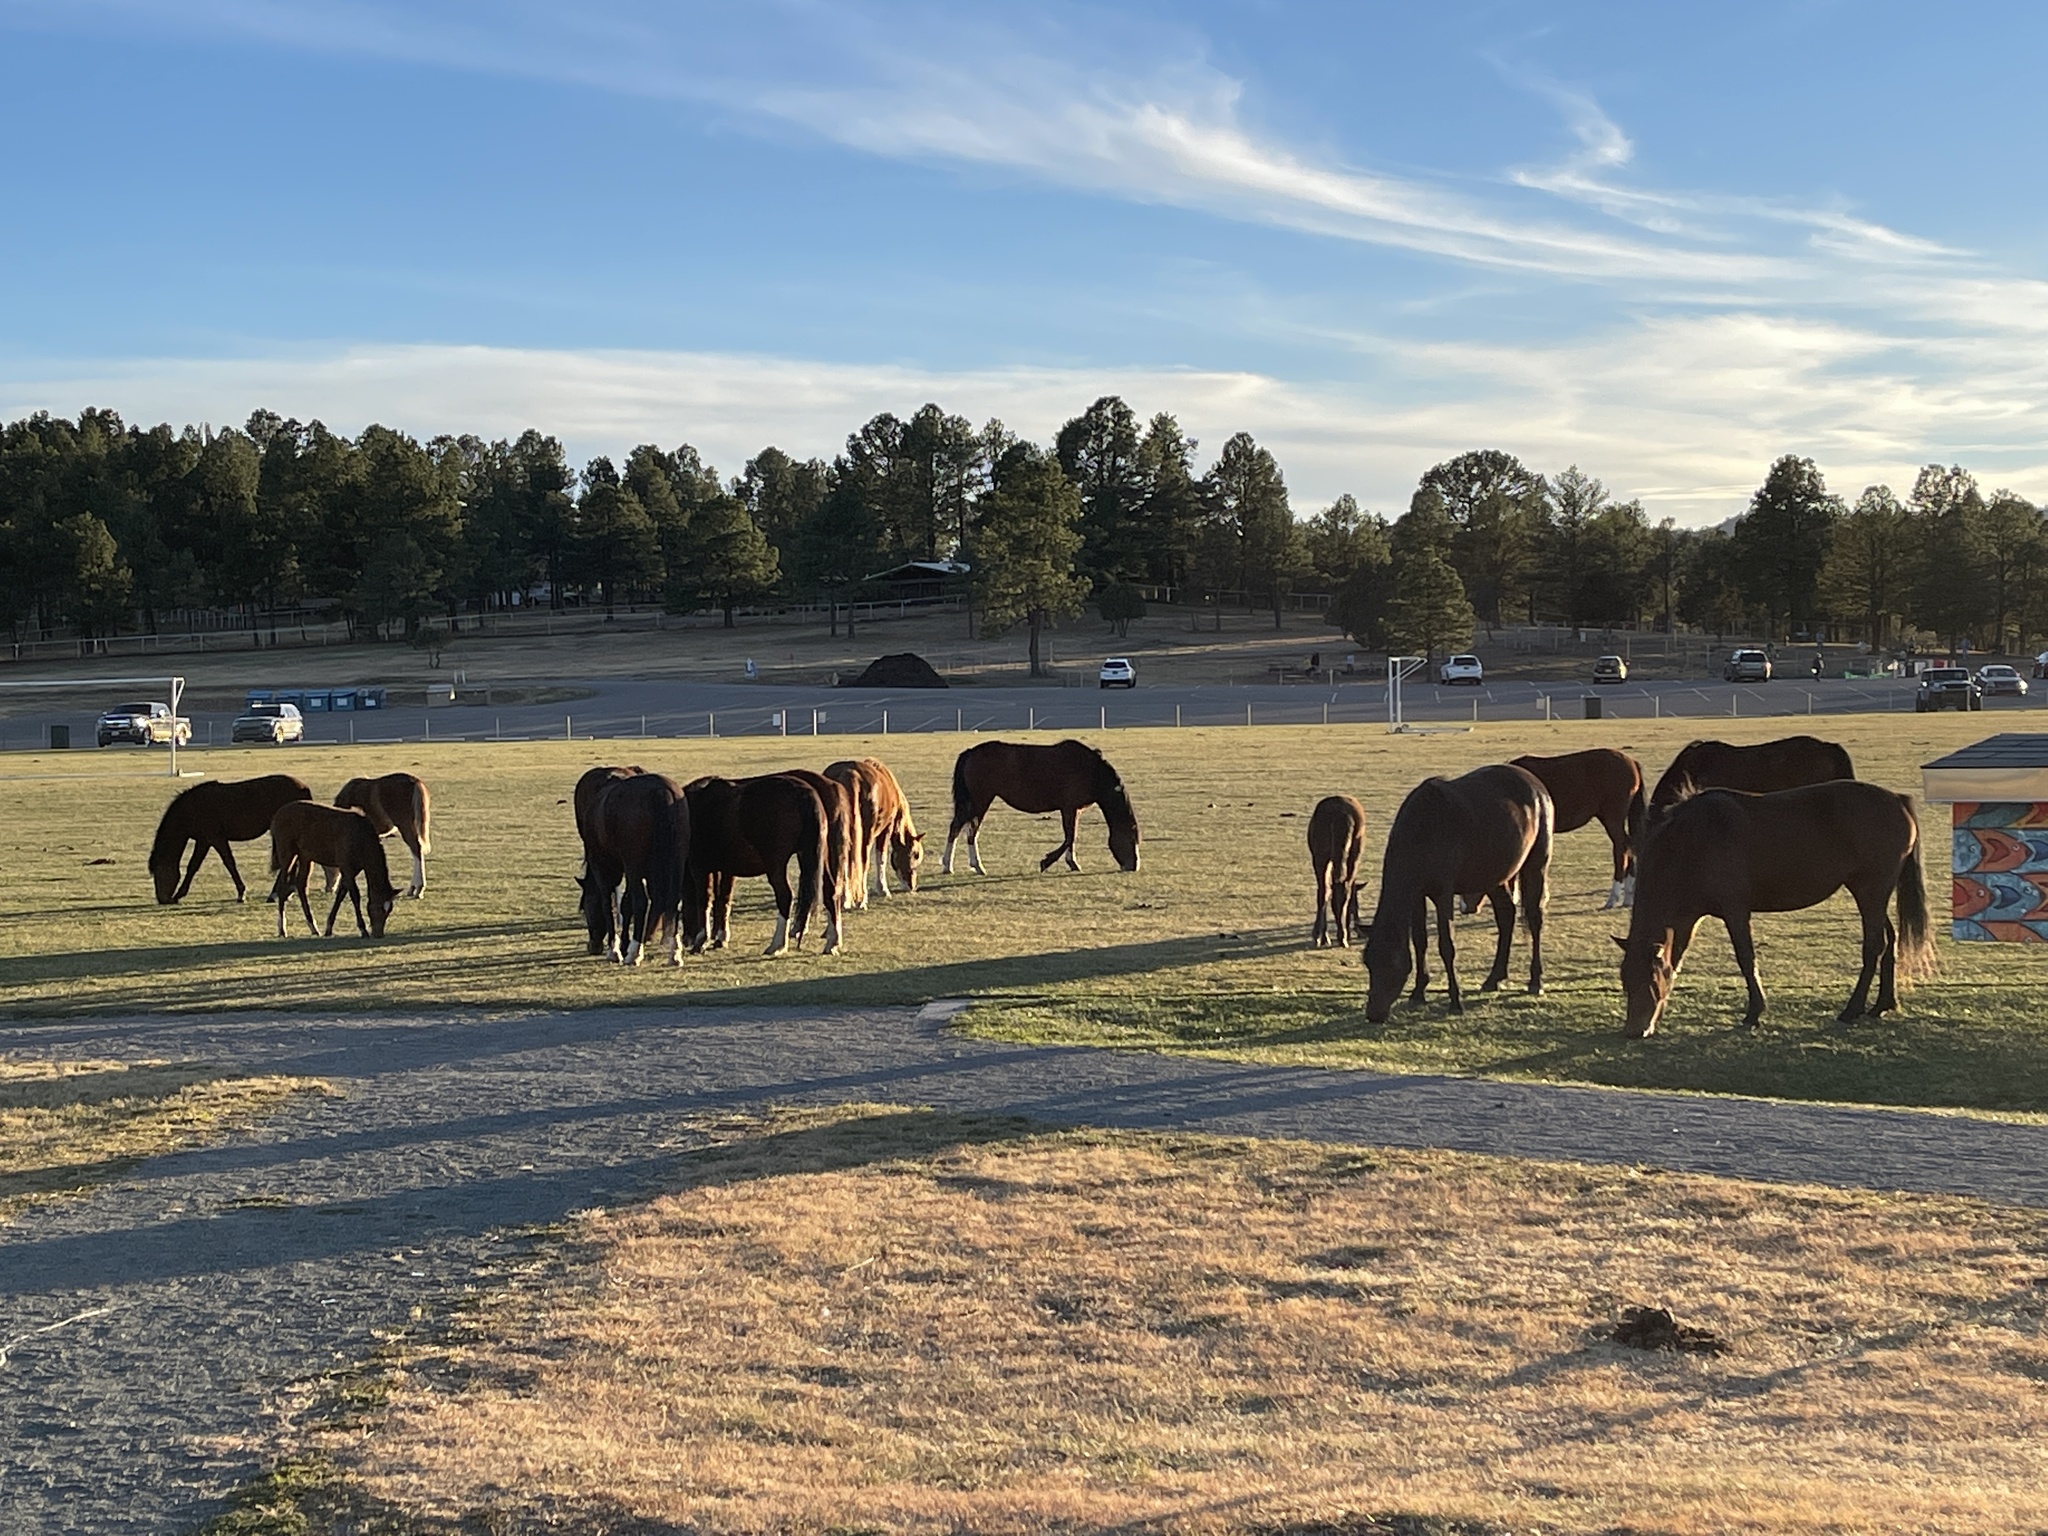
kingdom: Animalia
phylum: Chordata
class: Mammalia
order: Perissodactyla
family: Equidae
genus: Equus
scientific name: Equus caballus
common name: Horse
